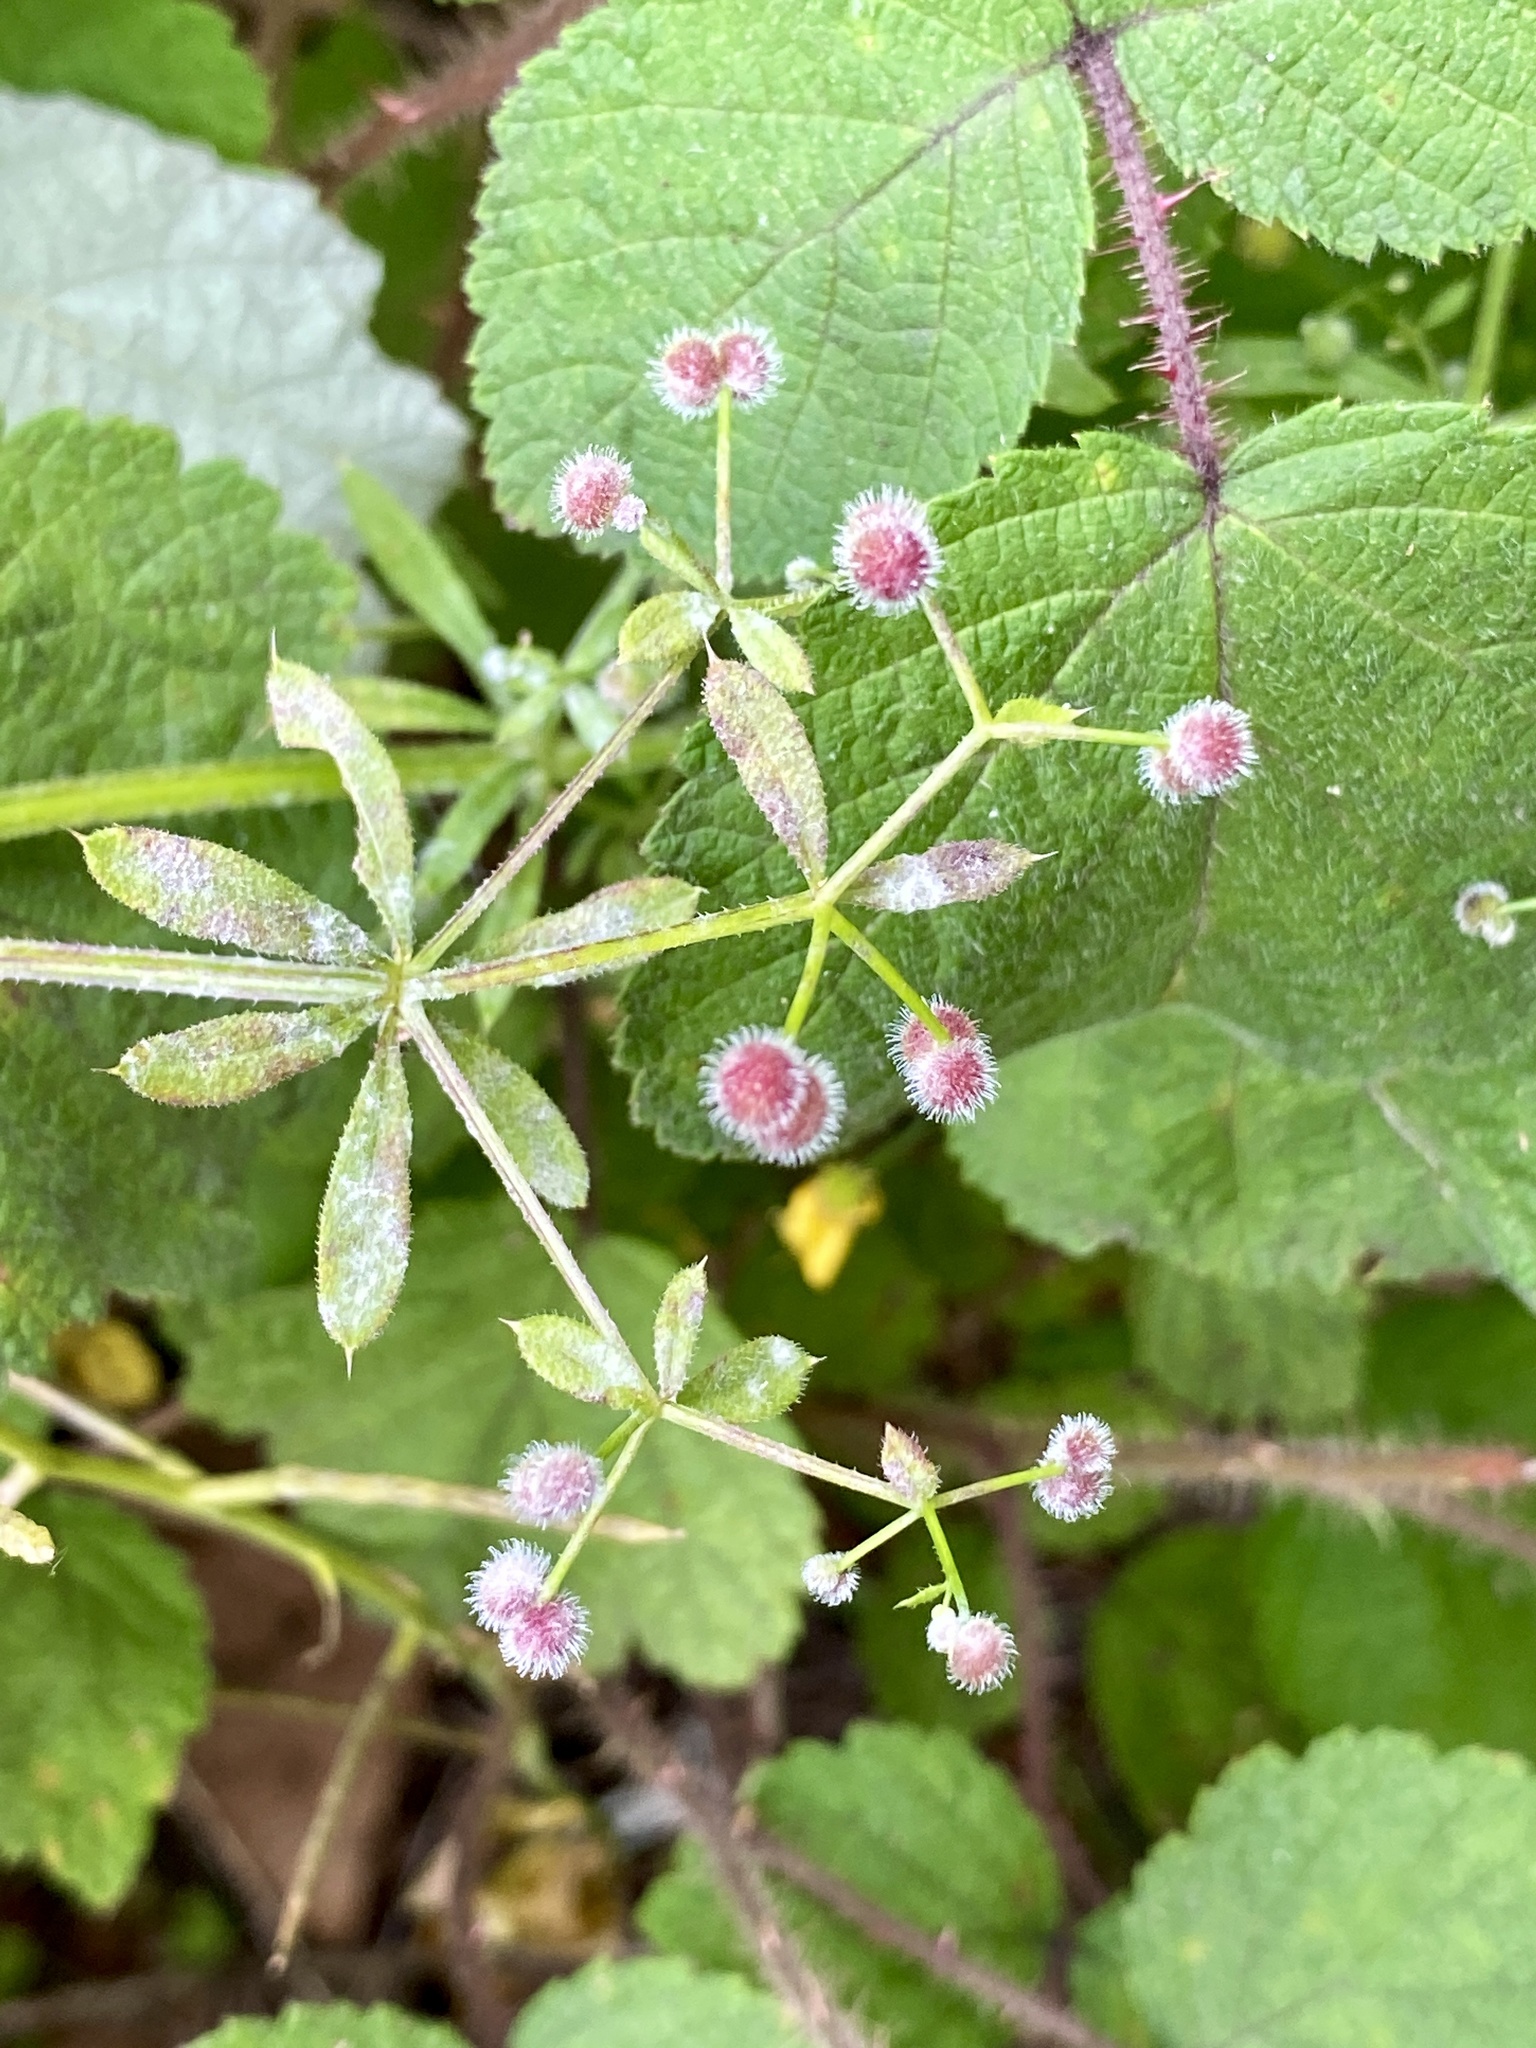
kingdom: Plantae
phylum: Tracheophyta
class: Magnoliopsida
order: Gentianales
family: Rubiaceae
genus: Galium
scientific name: Galium aparine
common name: Cleavers
